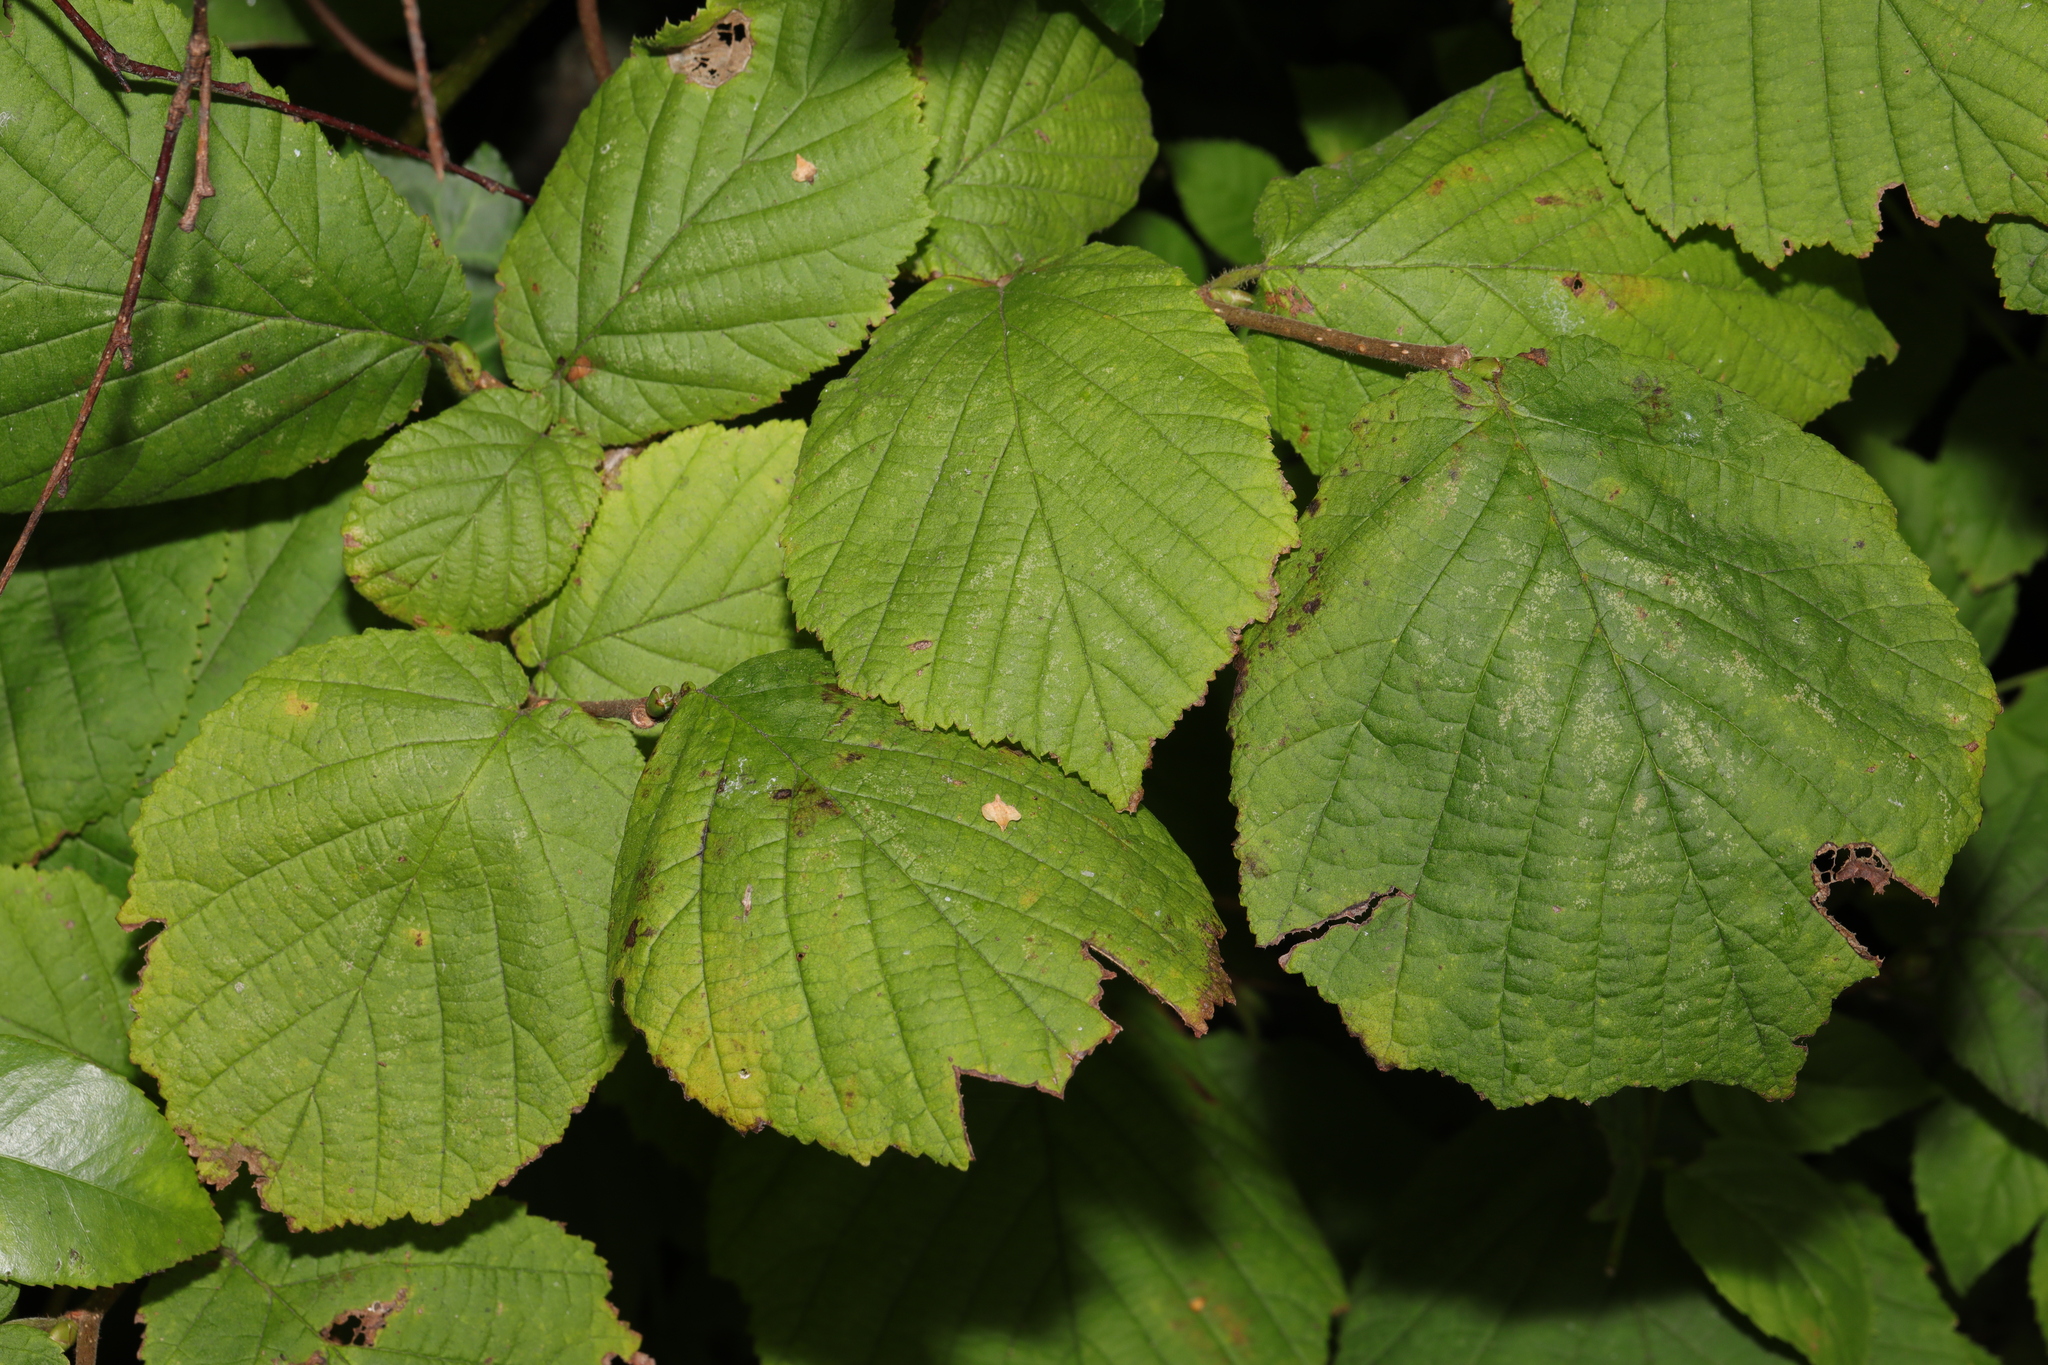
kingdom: Plantae
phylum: Tracheophyta
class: Magnoliopsida
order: Fagales
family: Betulaceae
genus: Corylus
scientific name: Corylus avellana
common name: European hazel
